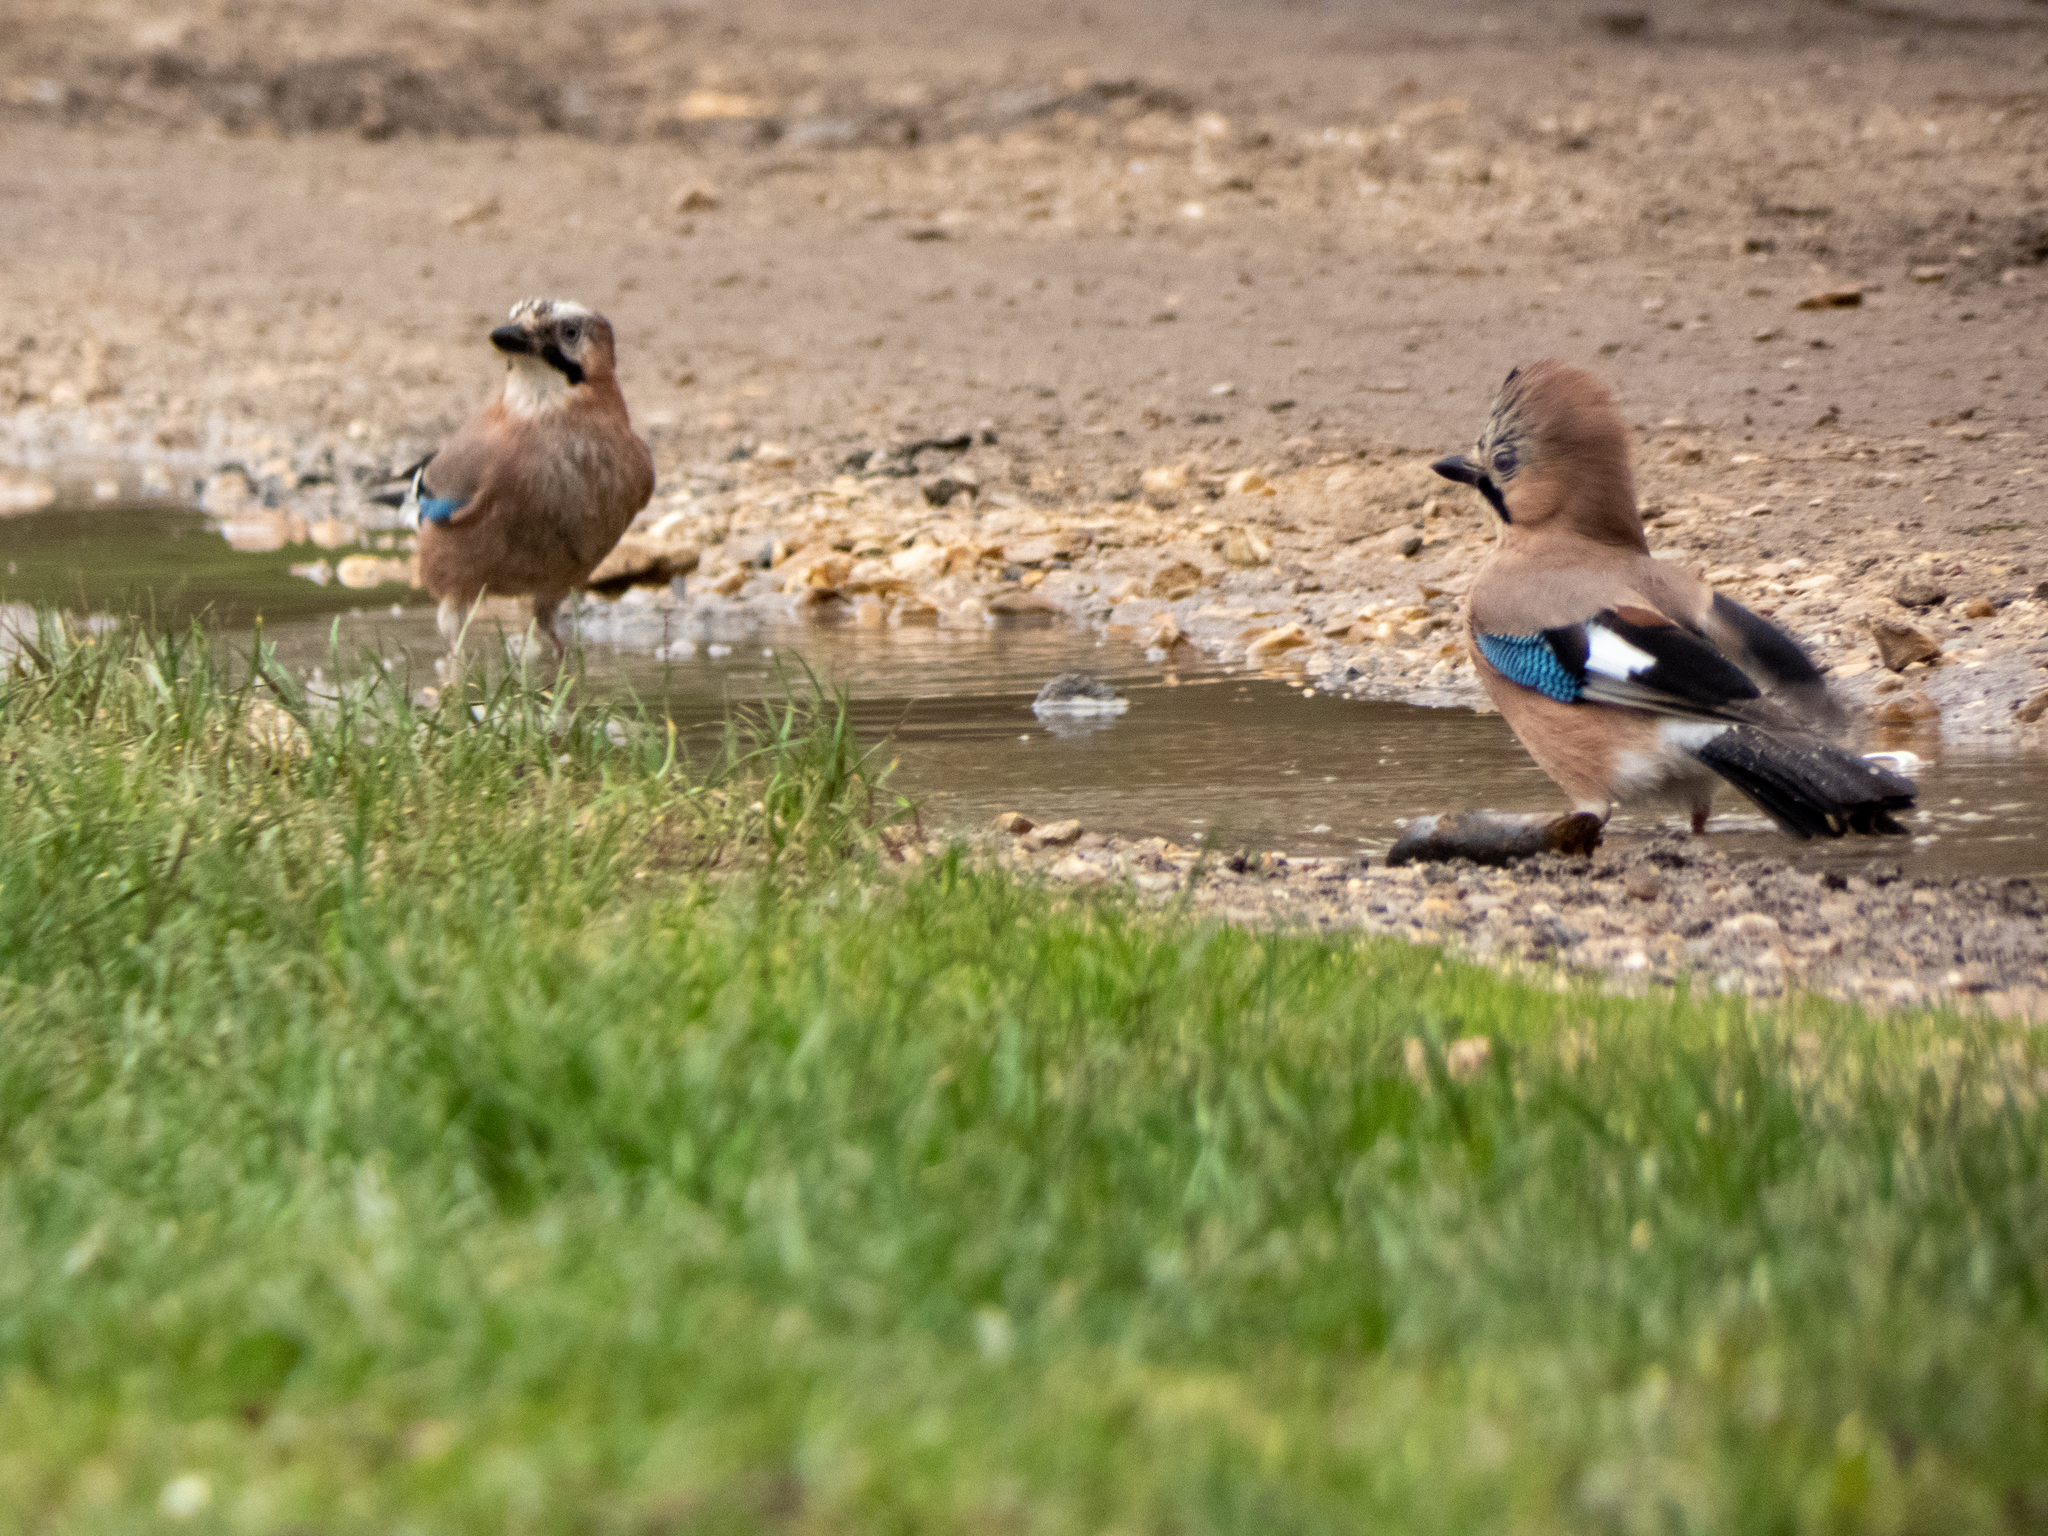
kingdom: Animalia
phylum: Chordata
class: Aves
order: Passeriformes
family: Corvidae
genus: Garrulus
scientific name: Garrulus glandarius
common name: Eurasian jay
